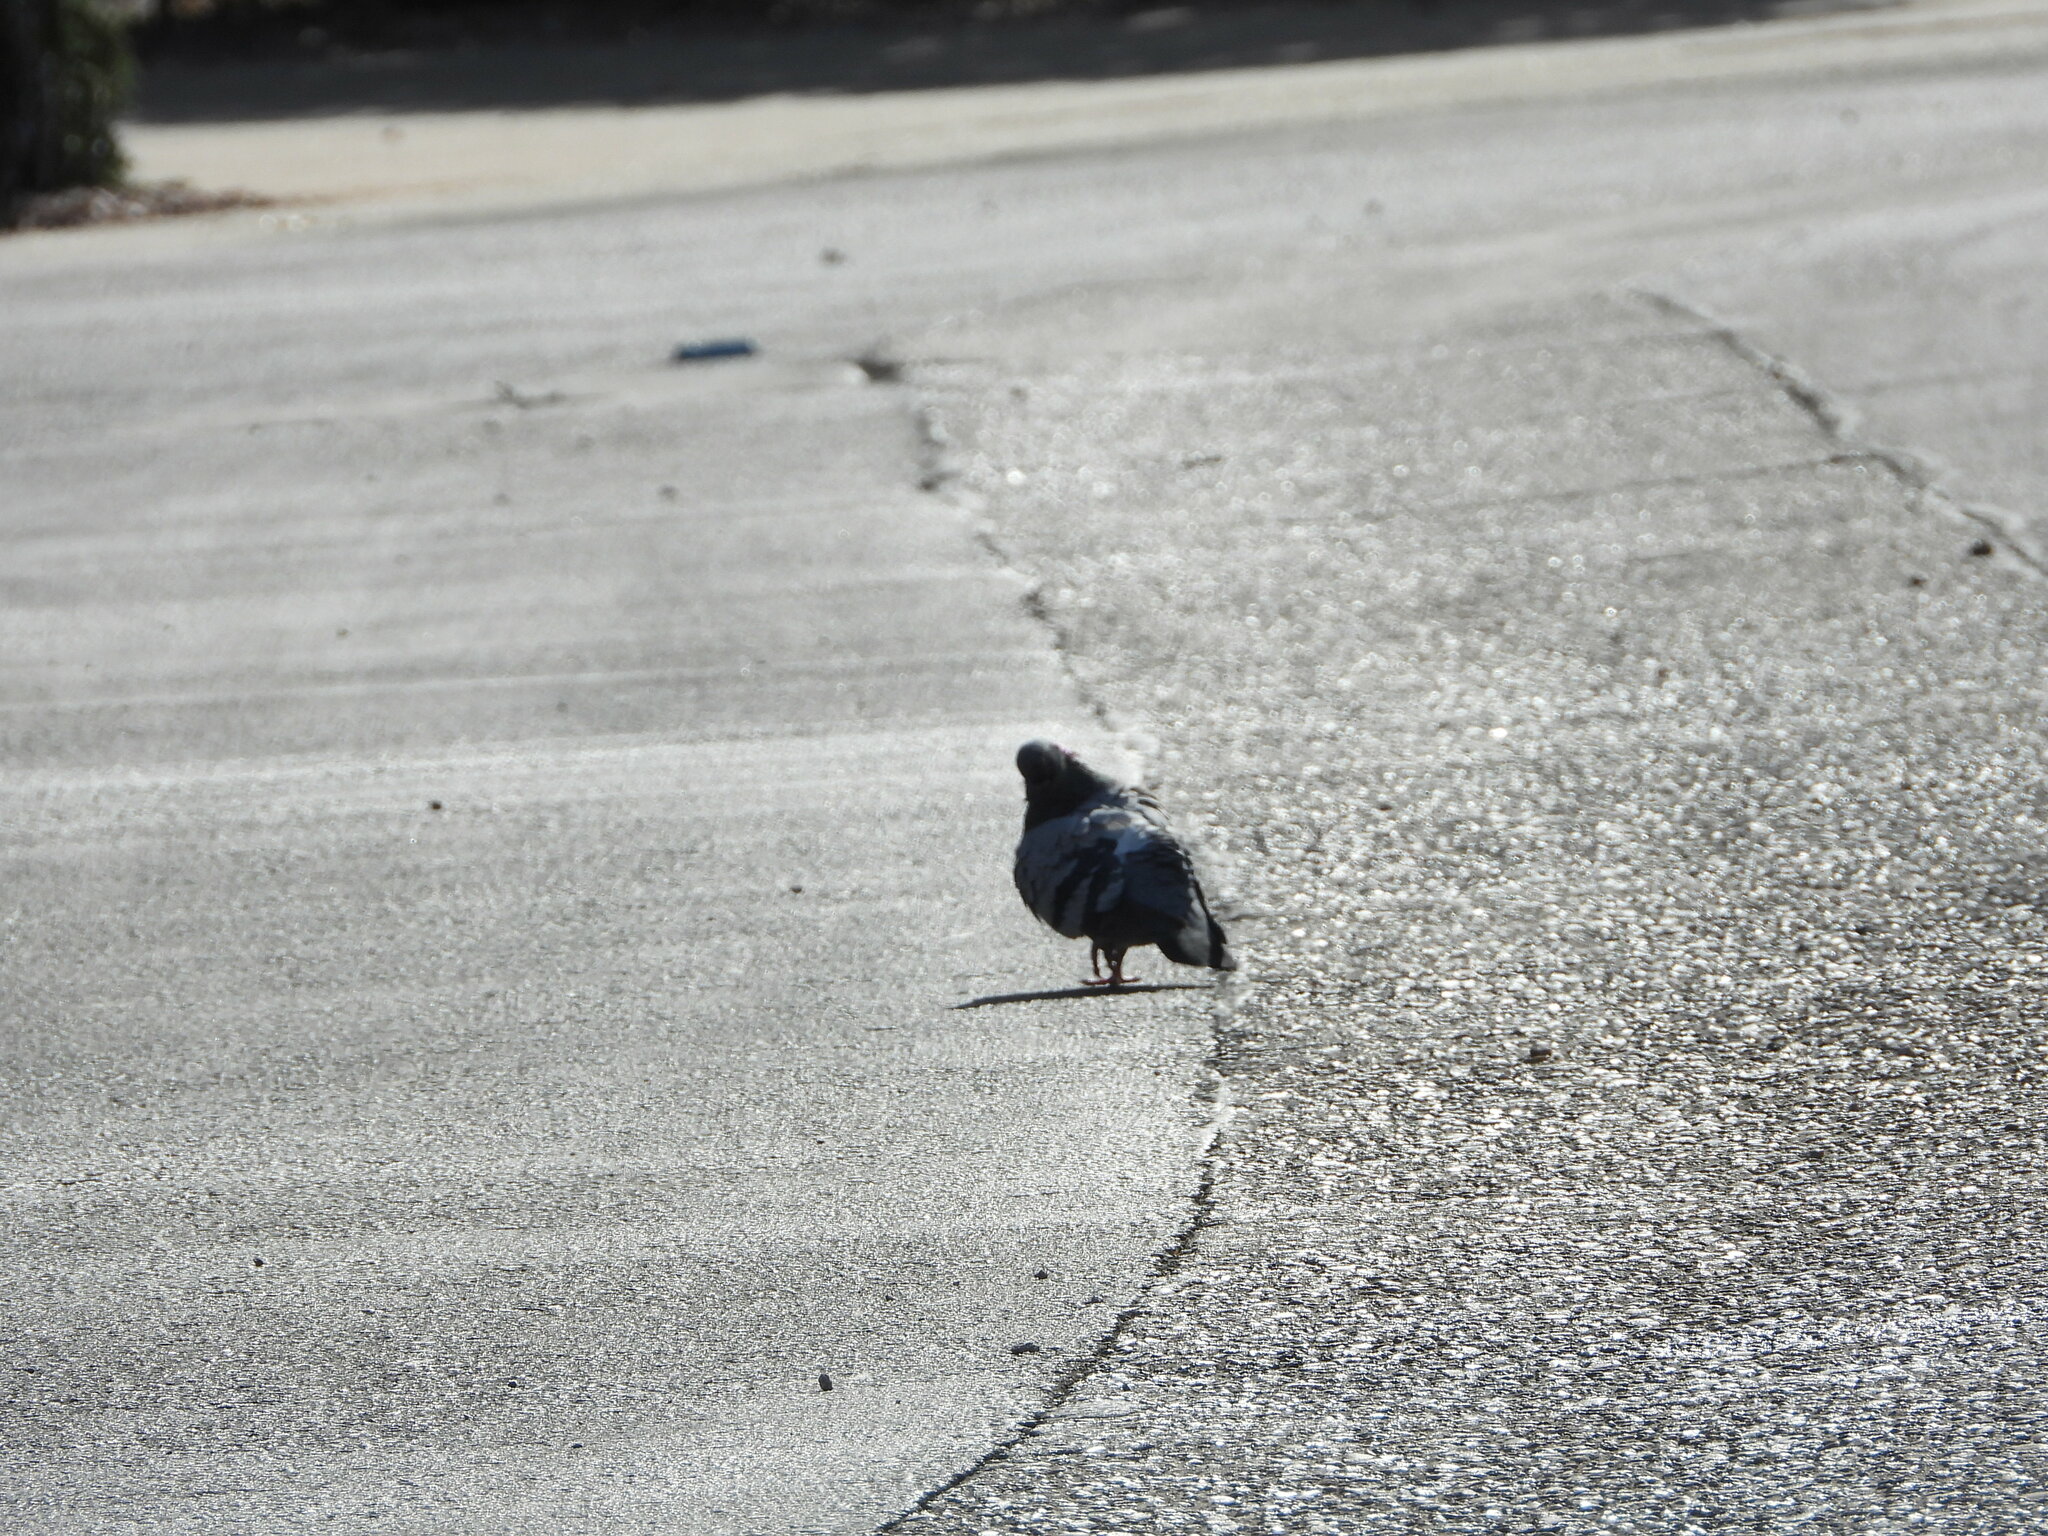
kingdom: Animalia
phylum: Chordata
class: Aves
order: Columbiformes
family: Columbidae
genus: Columba
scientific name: Columba livia
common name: Rock pigeon
